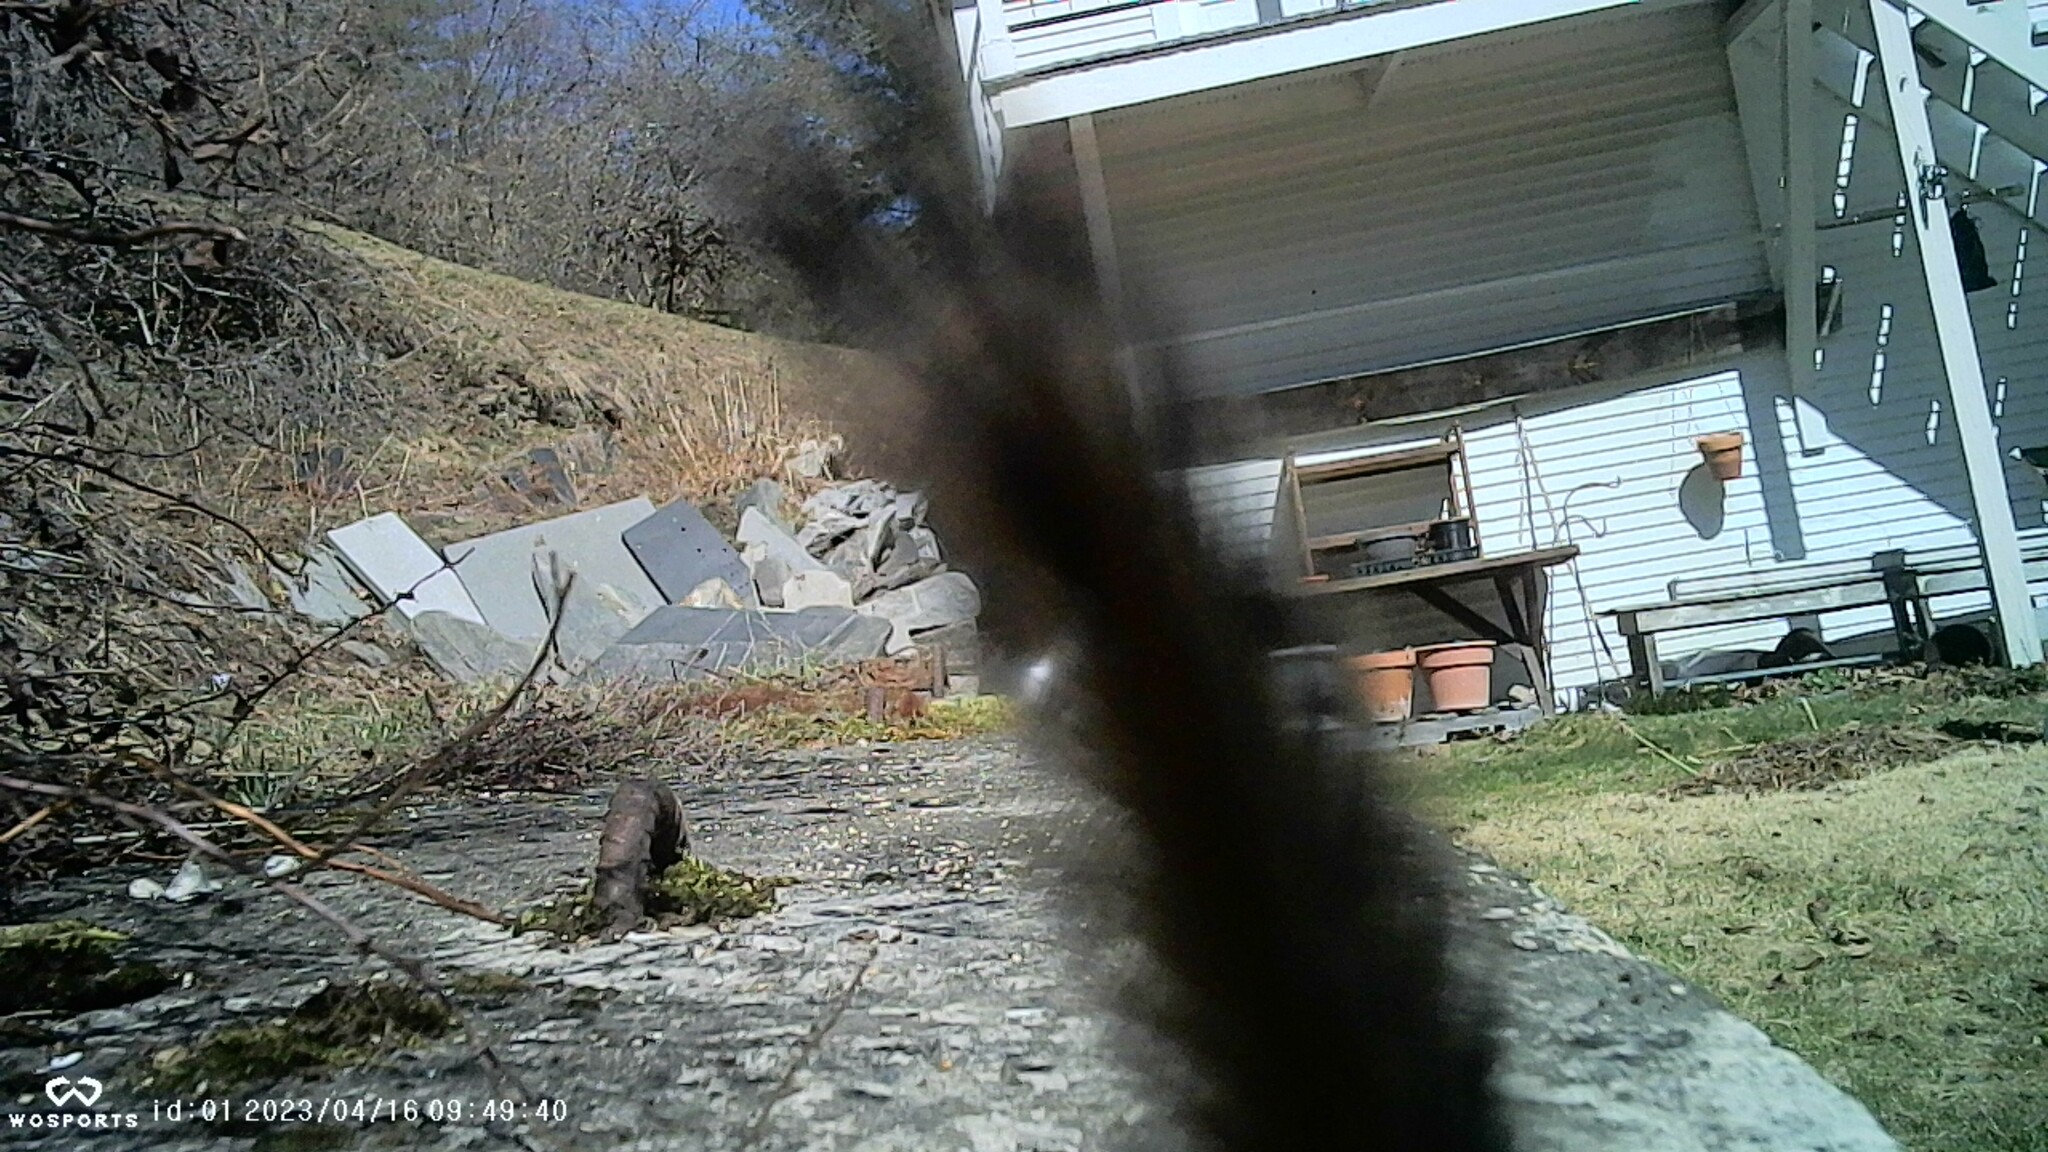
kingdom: Animalia
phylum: Chordata
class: Mammalia
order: Rodentia
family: Sciuridae
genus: Tamias
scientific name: Tamias striatus
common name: Eastern chipmunk
